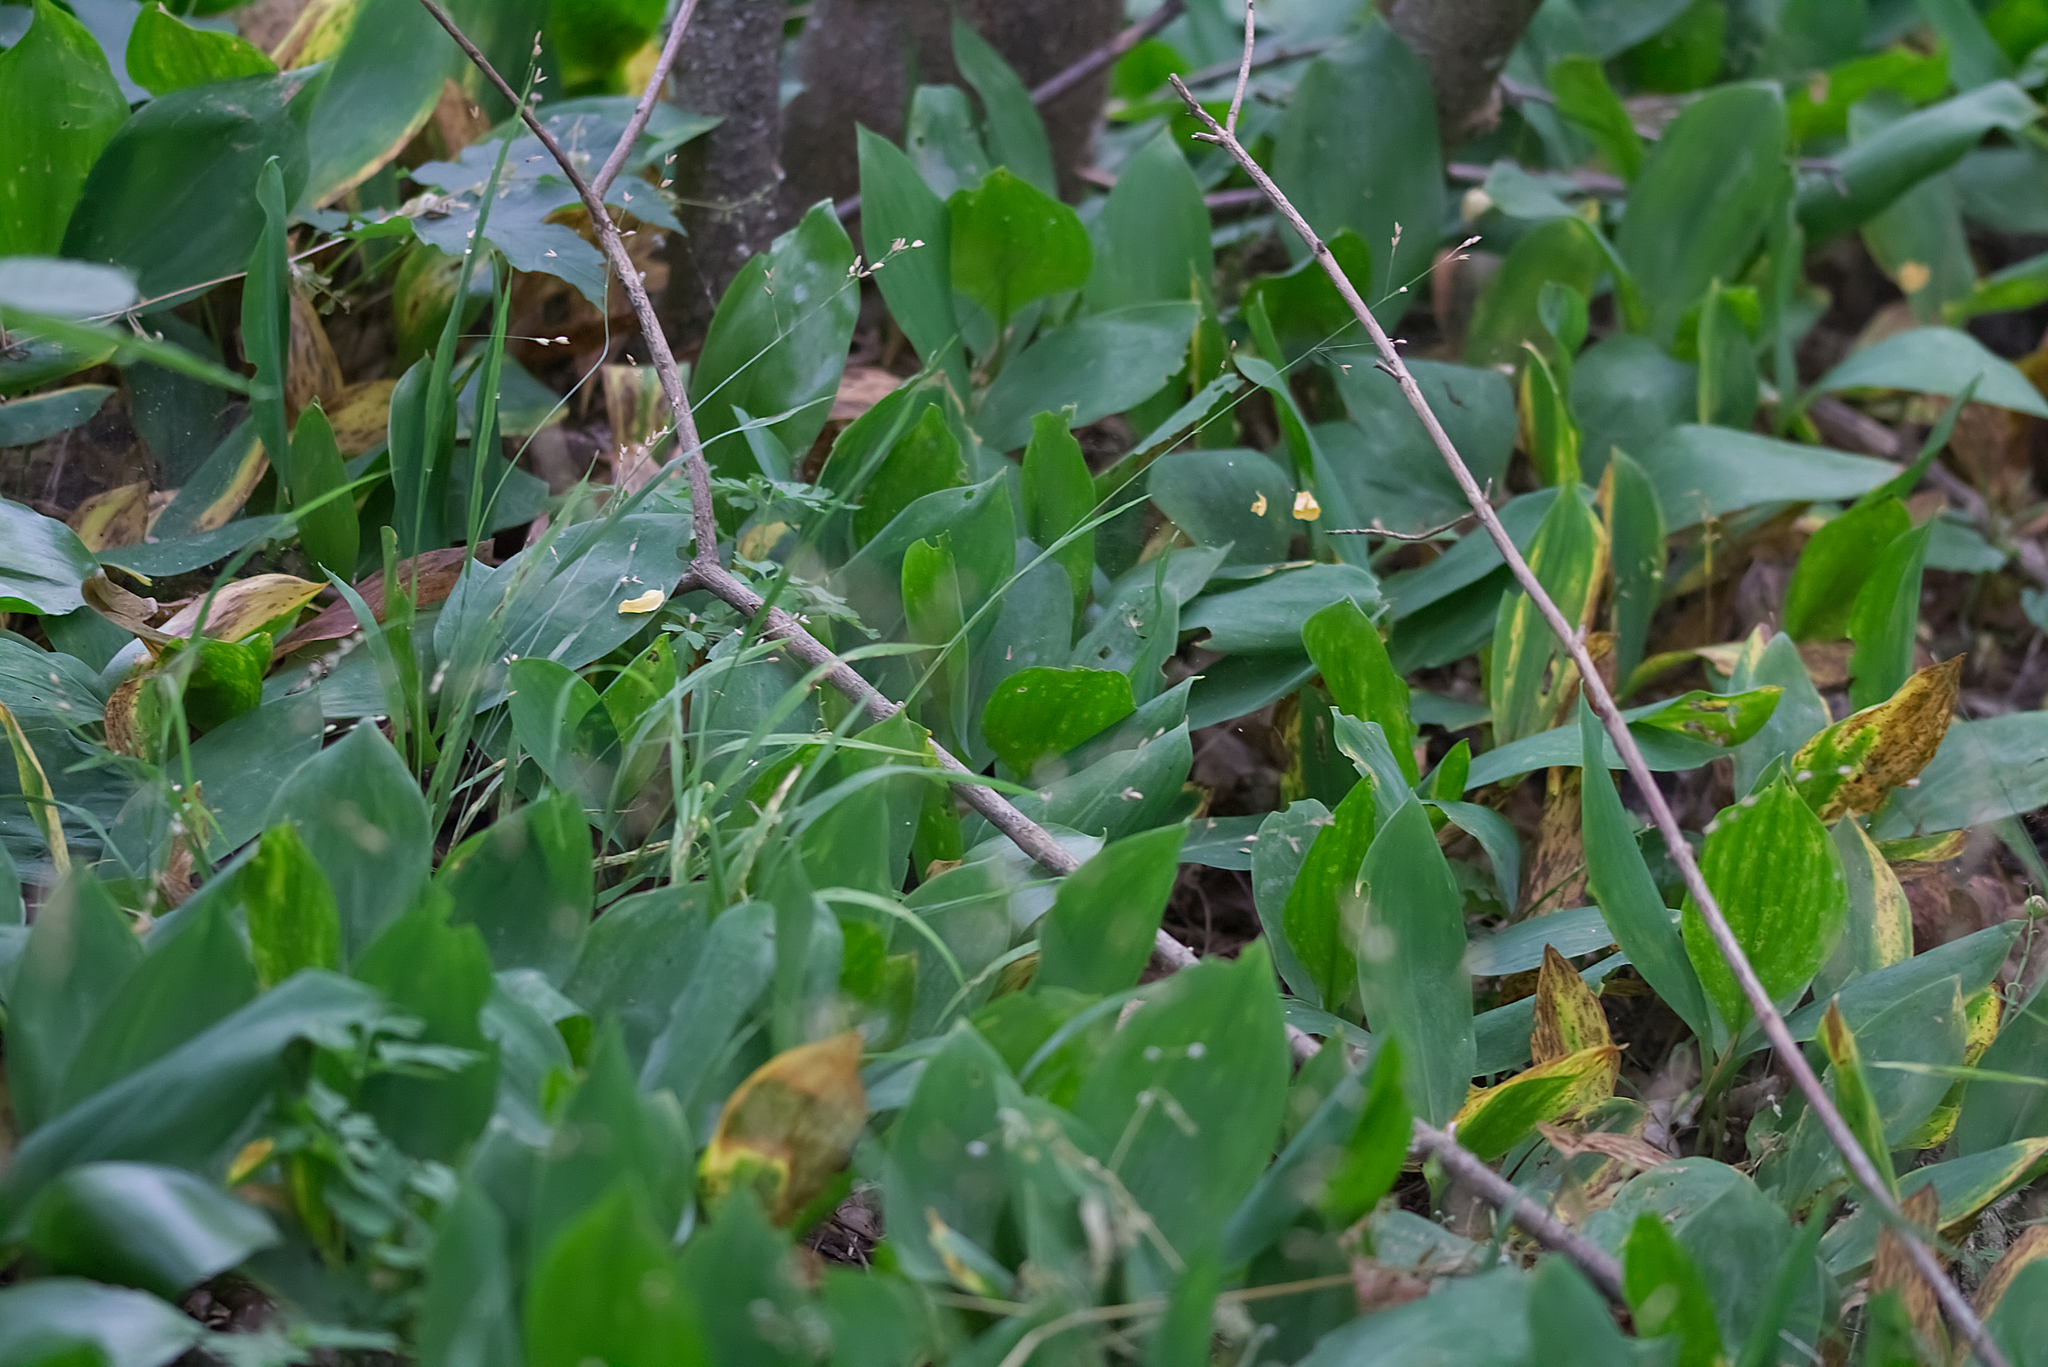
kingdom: Plantae
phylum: Tracheophyta
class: Liliopsida
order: Asparagales
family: Asparagaceae
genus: Convallaria
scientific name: Convallaria majalis
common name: Lily-of-the-valley
